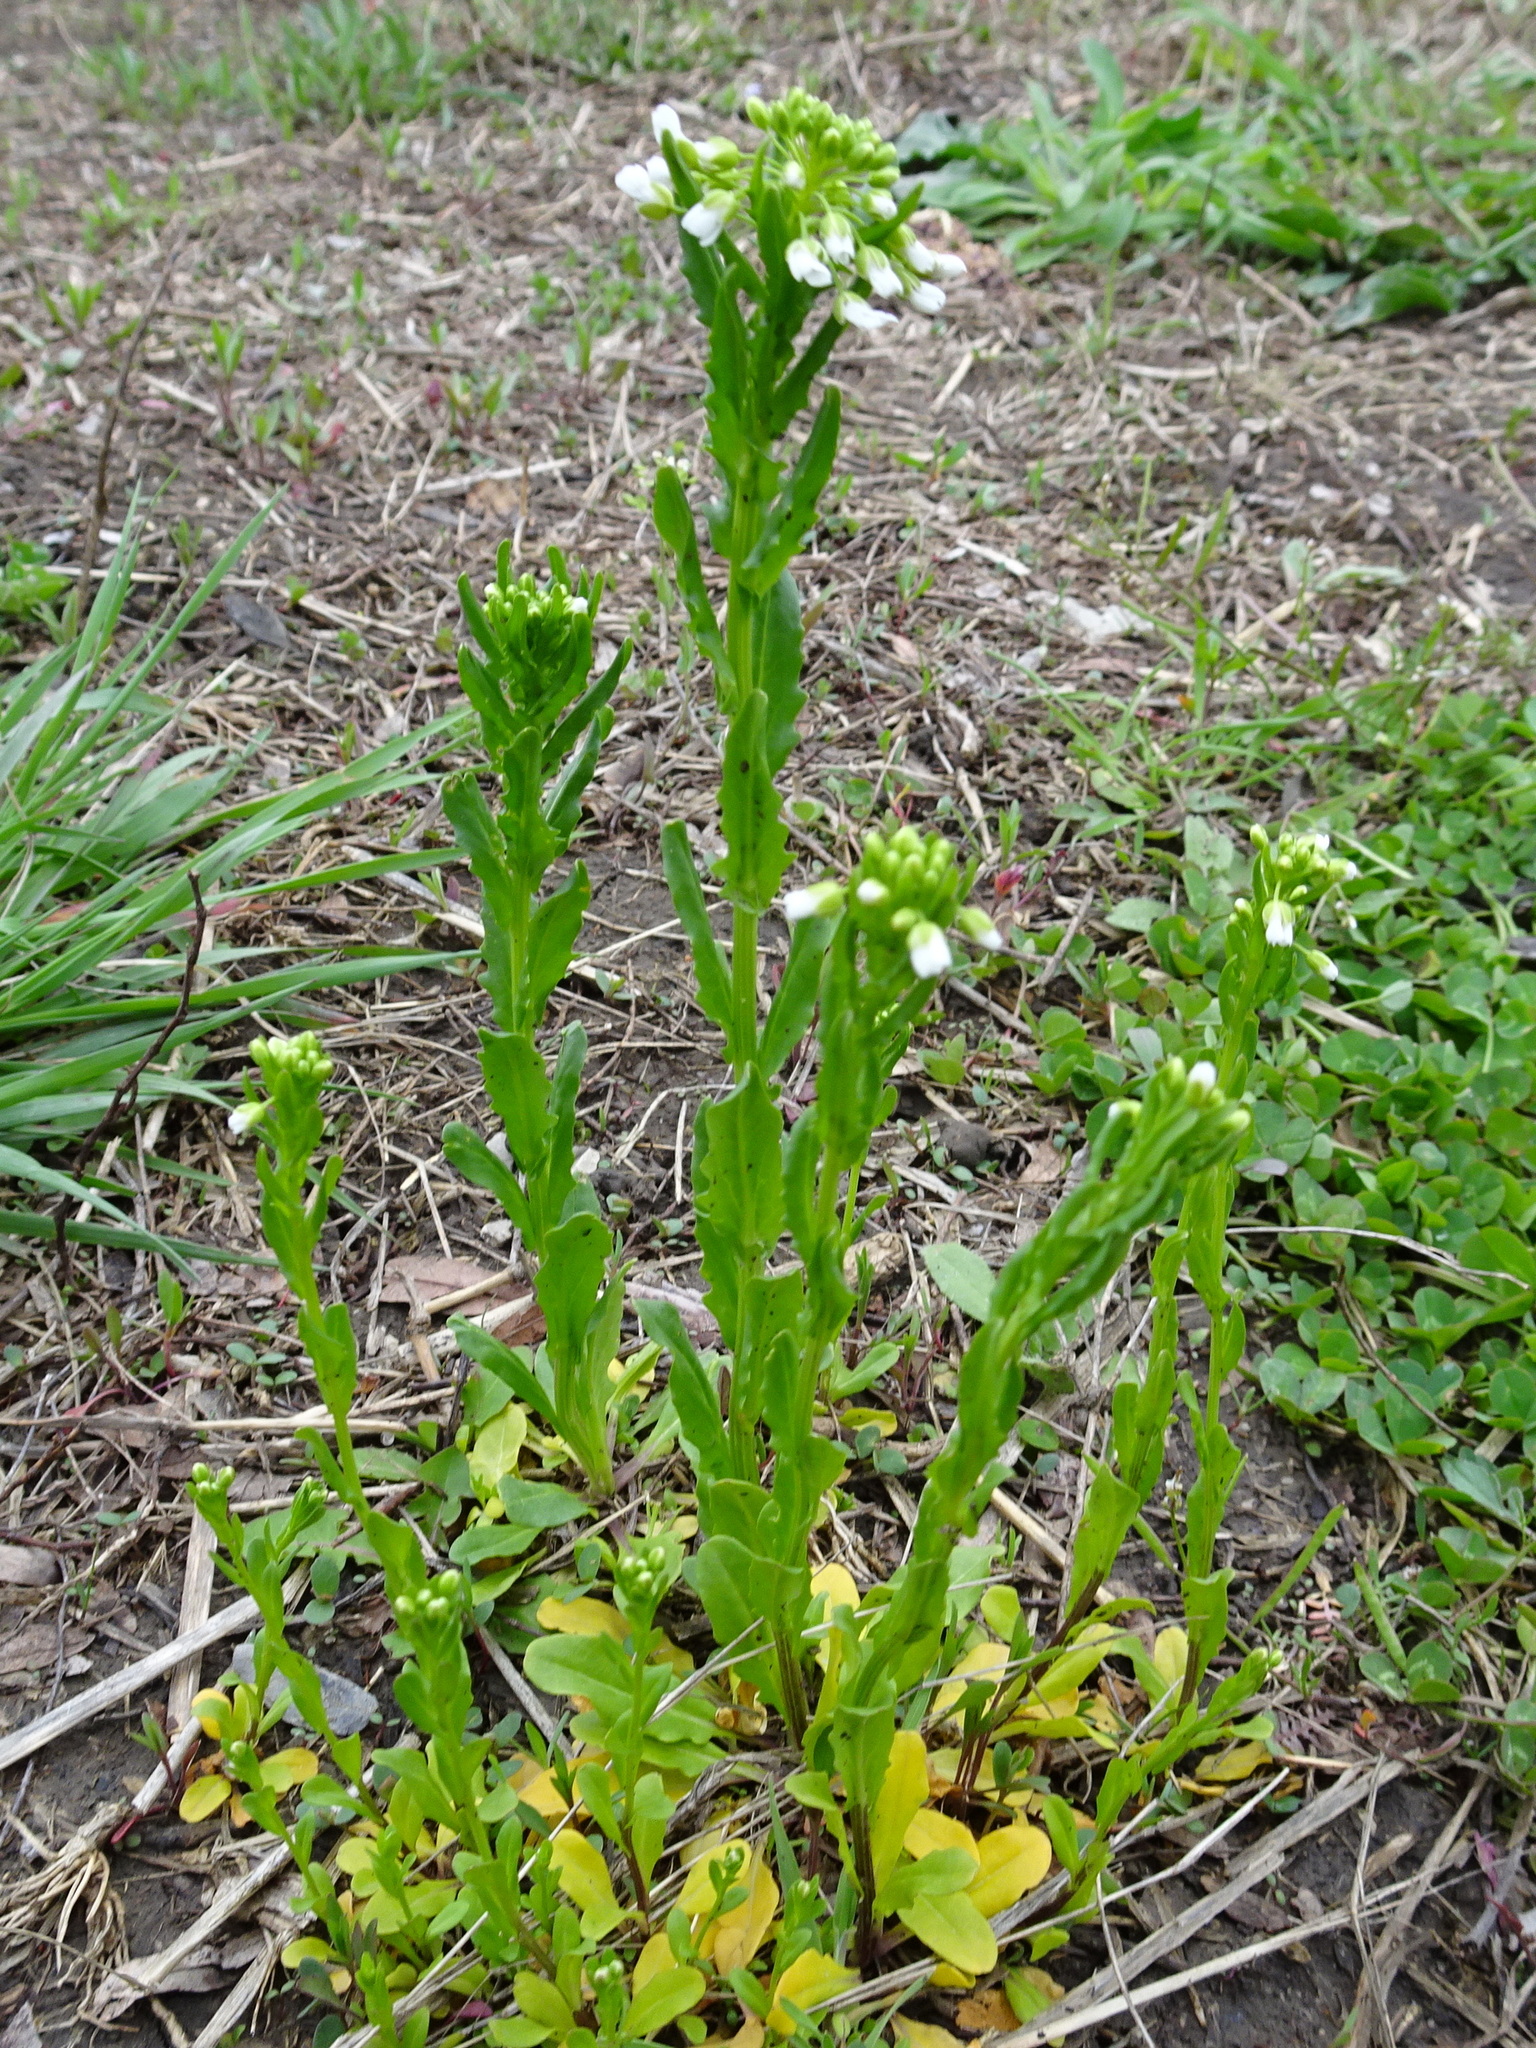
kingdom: Plantae
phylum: Tracheophyta
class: Magnoliopsida
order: Brassicales
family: Brassicaceae
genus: Thlaspi
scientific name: Thlaspi arvense
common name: Field pennycress
